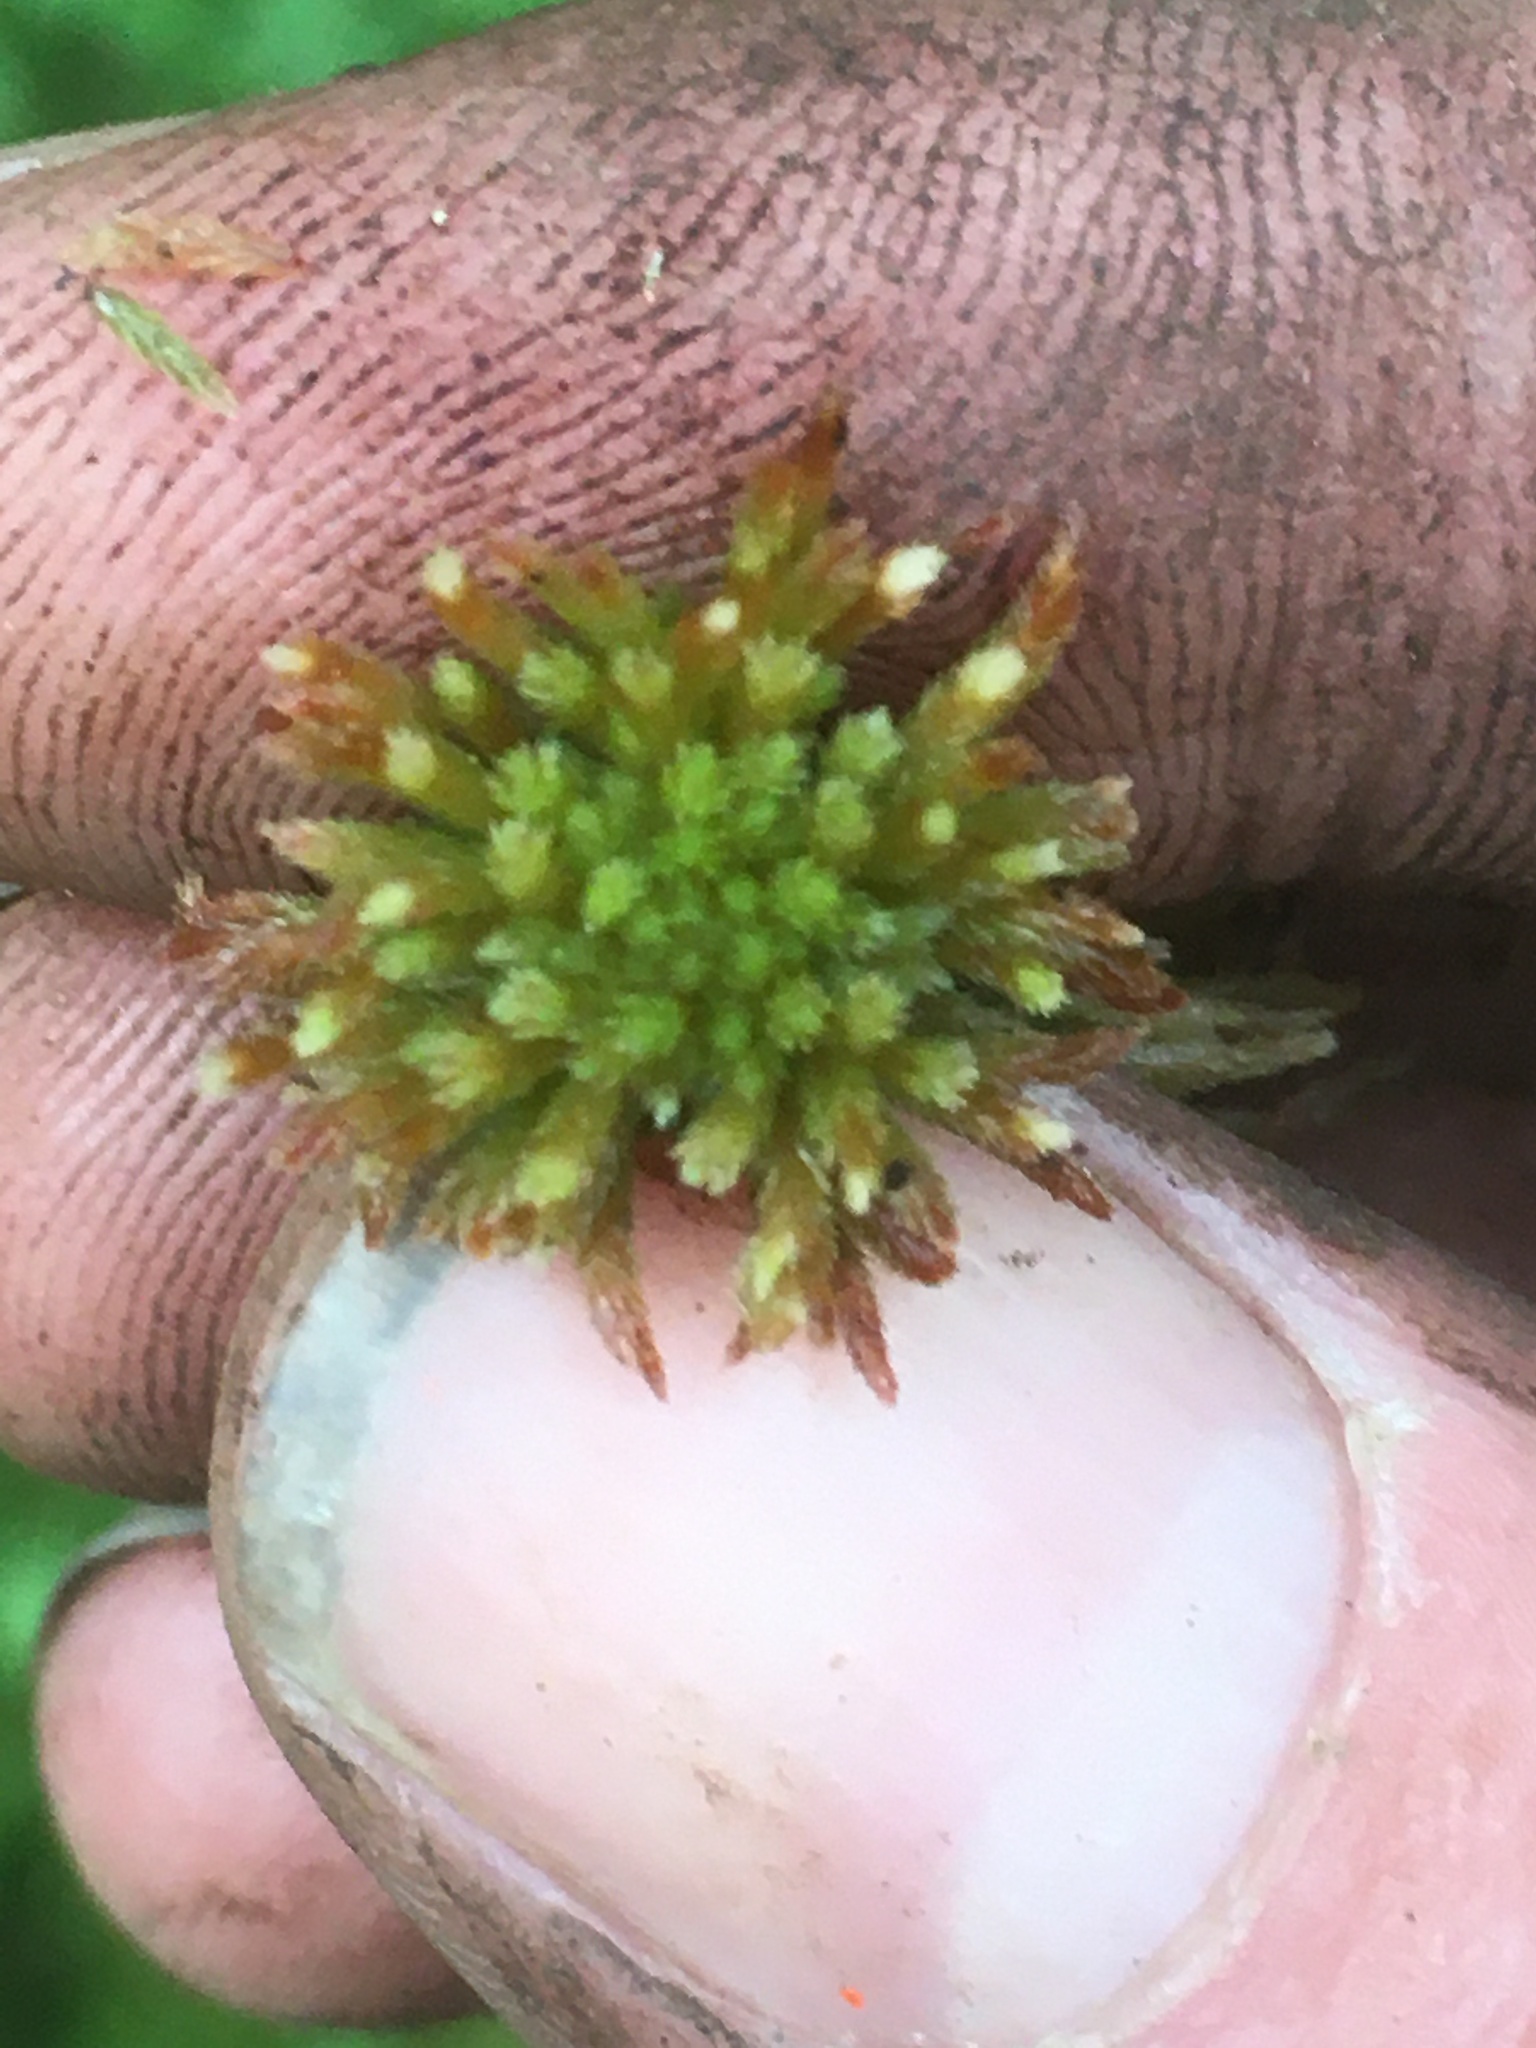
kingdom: Plantae
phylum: Bryophyta
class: Sphagnopsida
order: Sphagnales
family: Sphagnaceae
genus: Sphagnum
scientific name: Sphagnum wulfianum
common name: Wulf's peat moss
